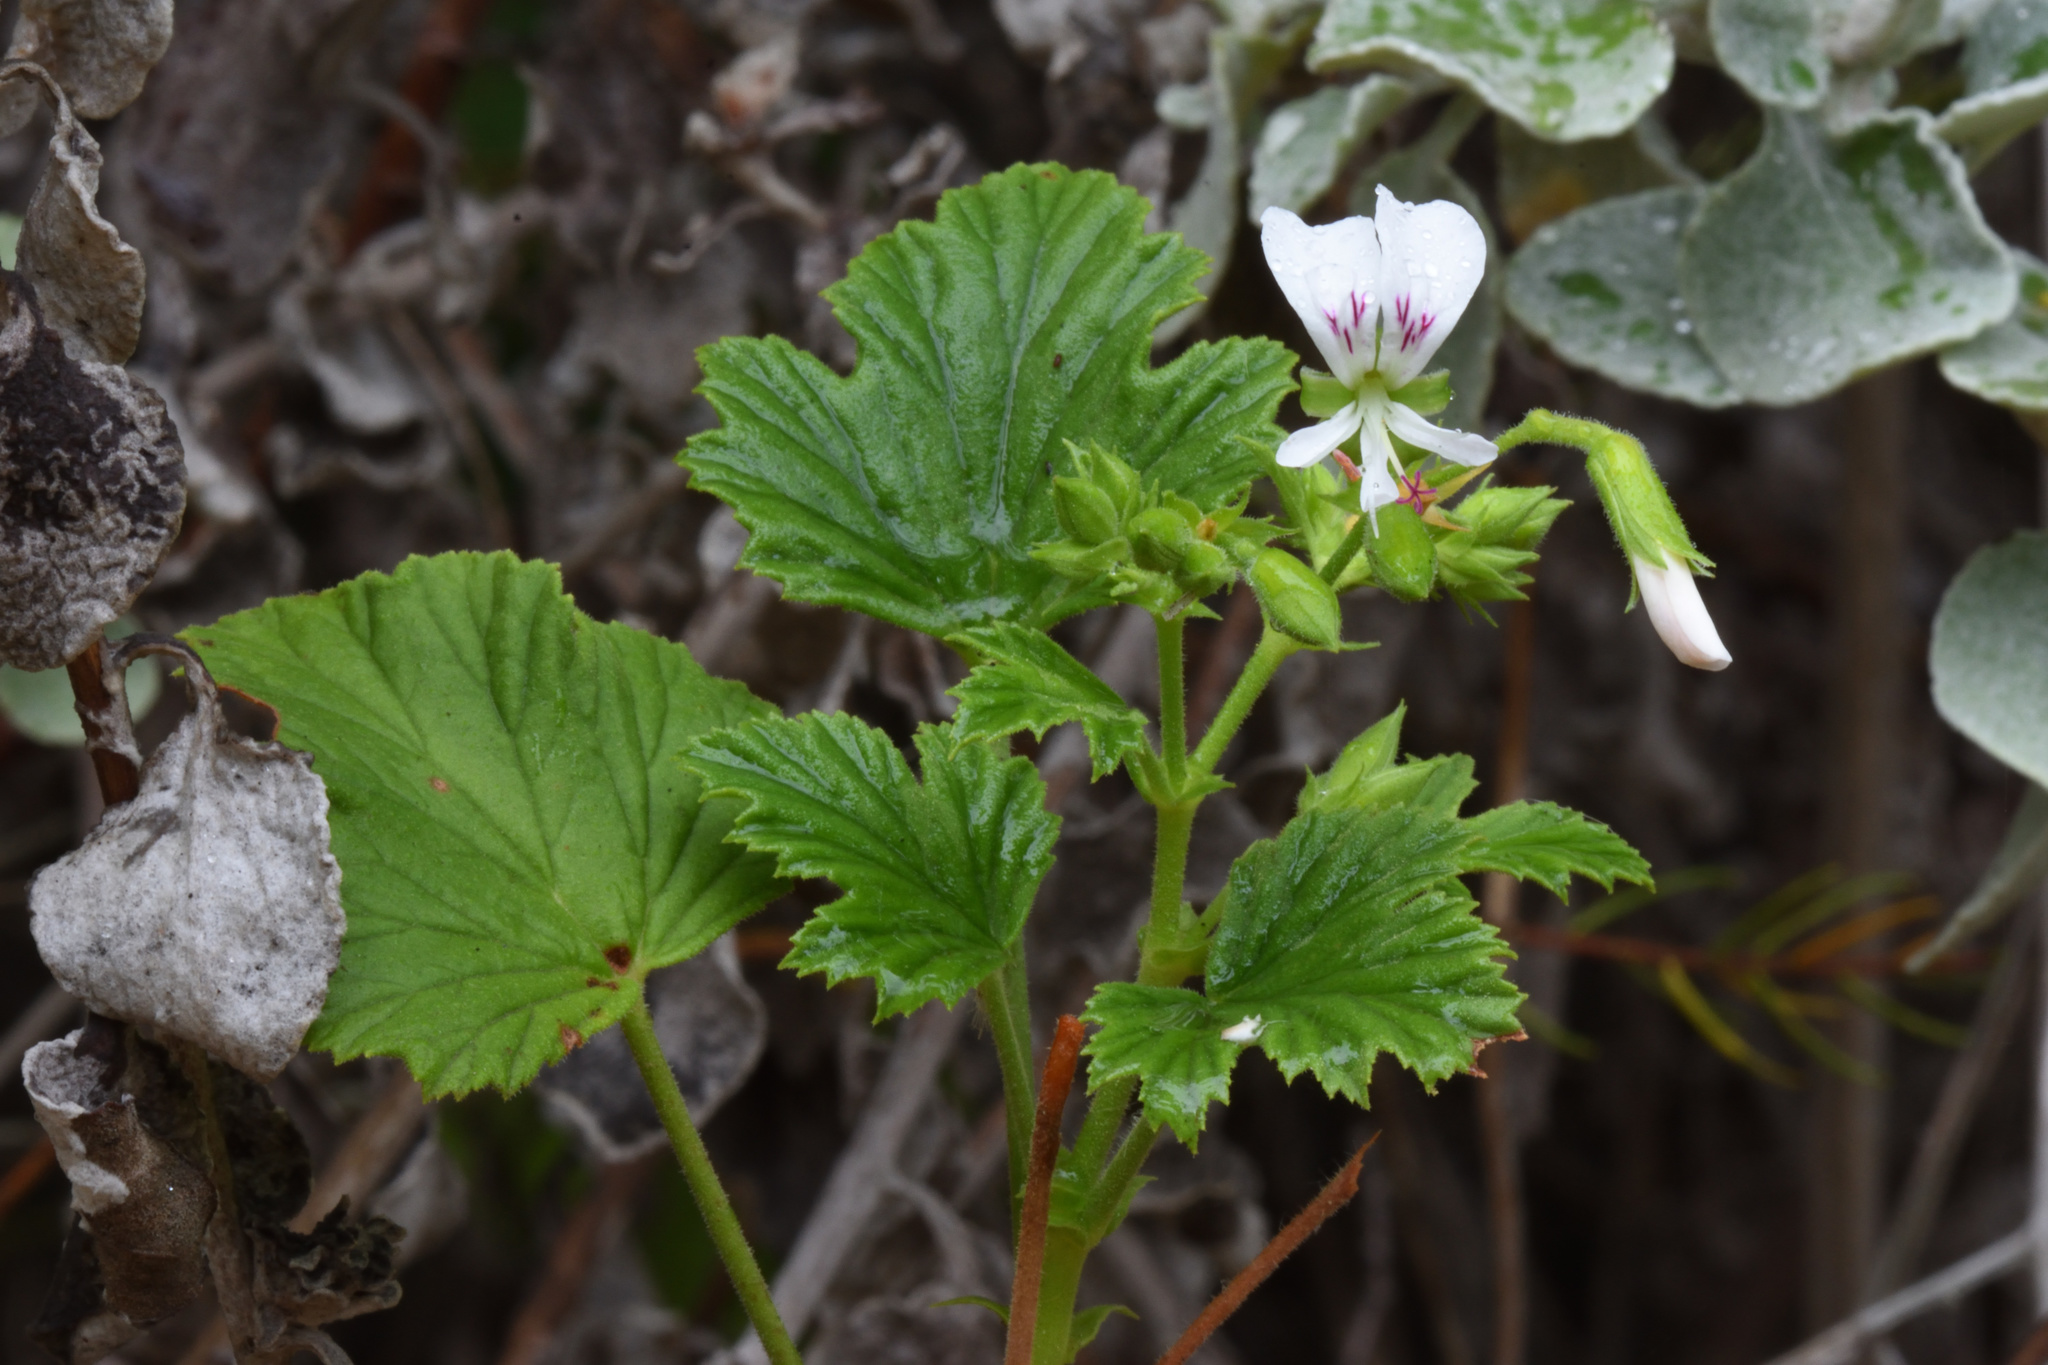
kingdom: Plantae
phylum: Tracheophyta
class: Magnoliopsida
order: Geraniales
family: Geraniaceae
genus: Pelargonium
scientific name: Pelargonium ribifolium
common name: Currant-leaf pelargonium
